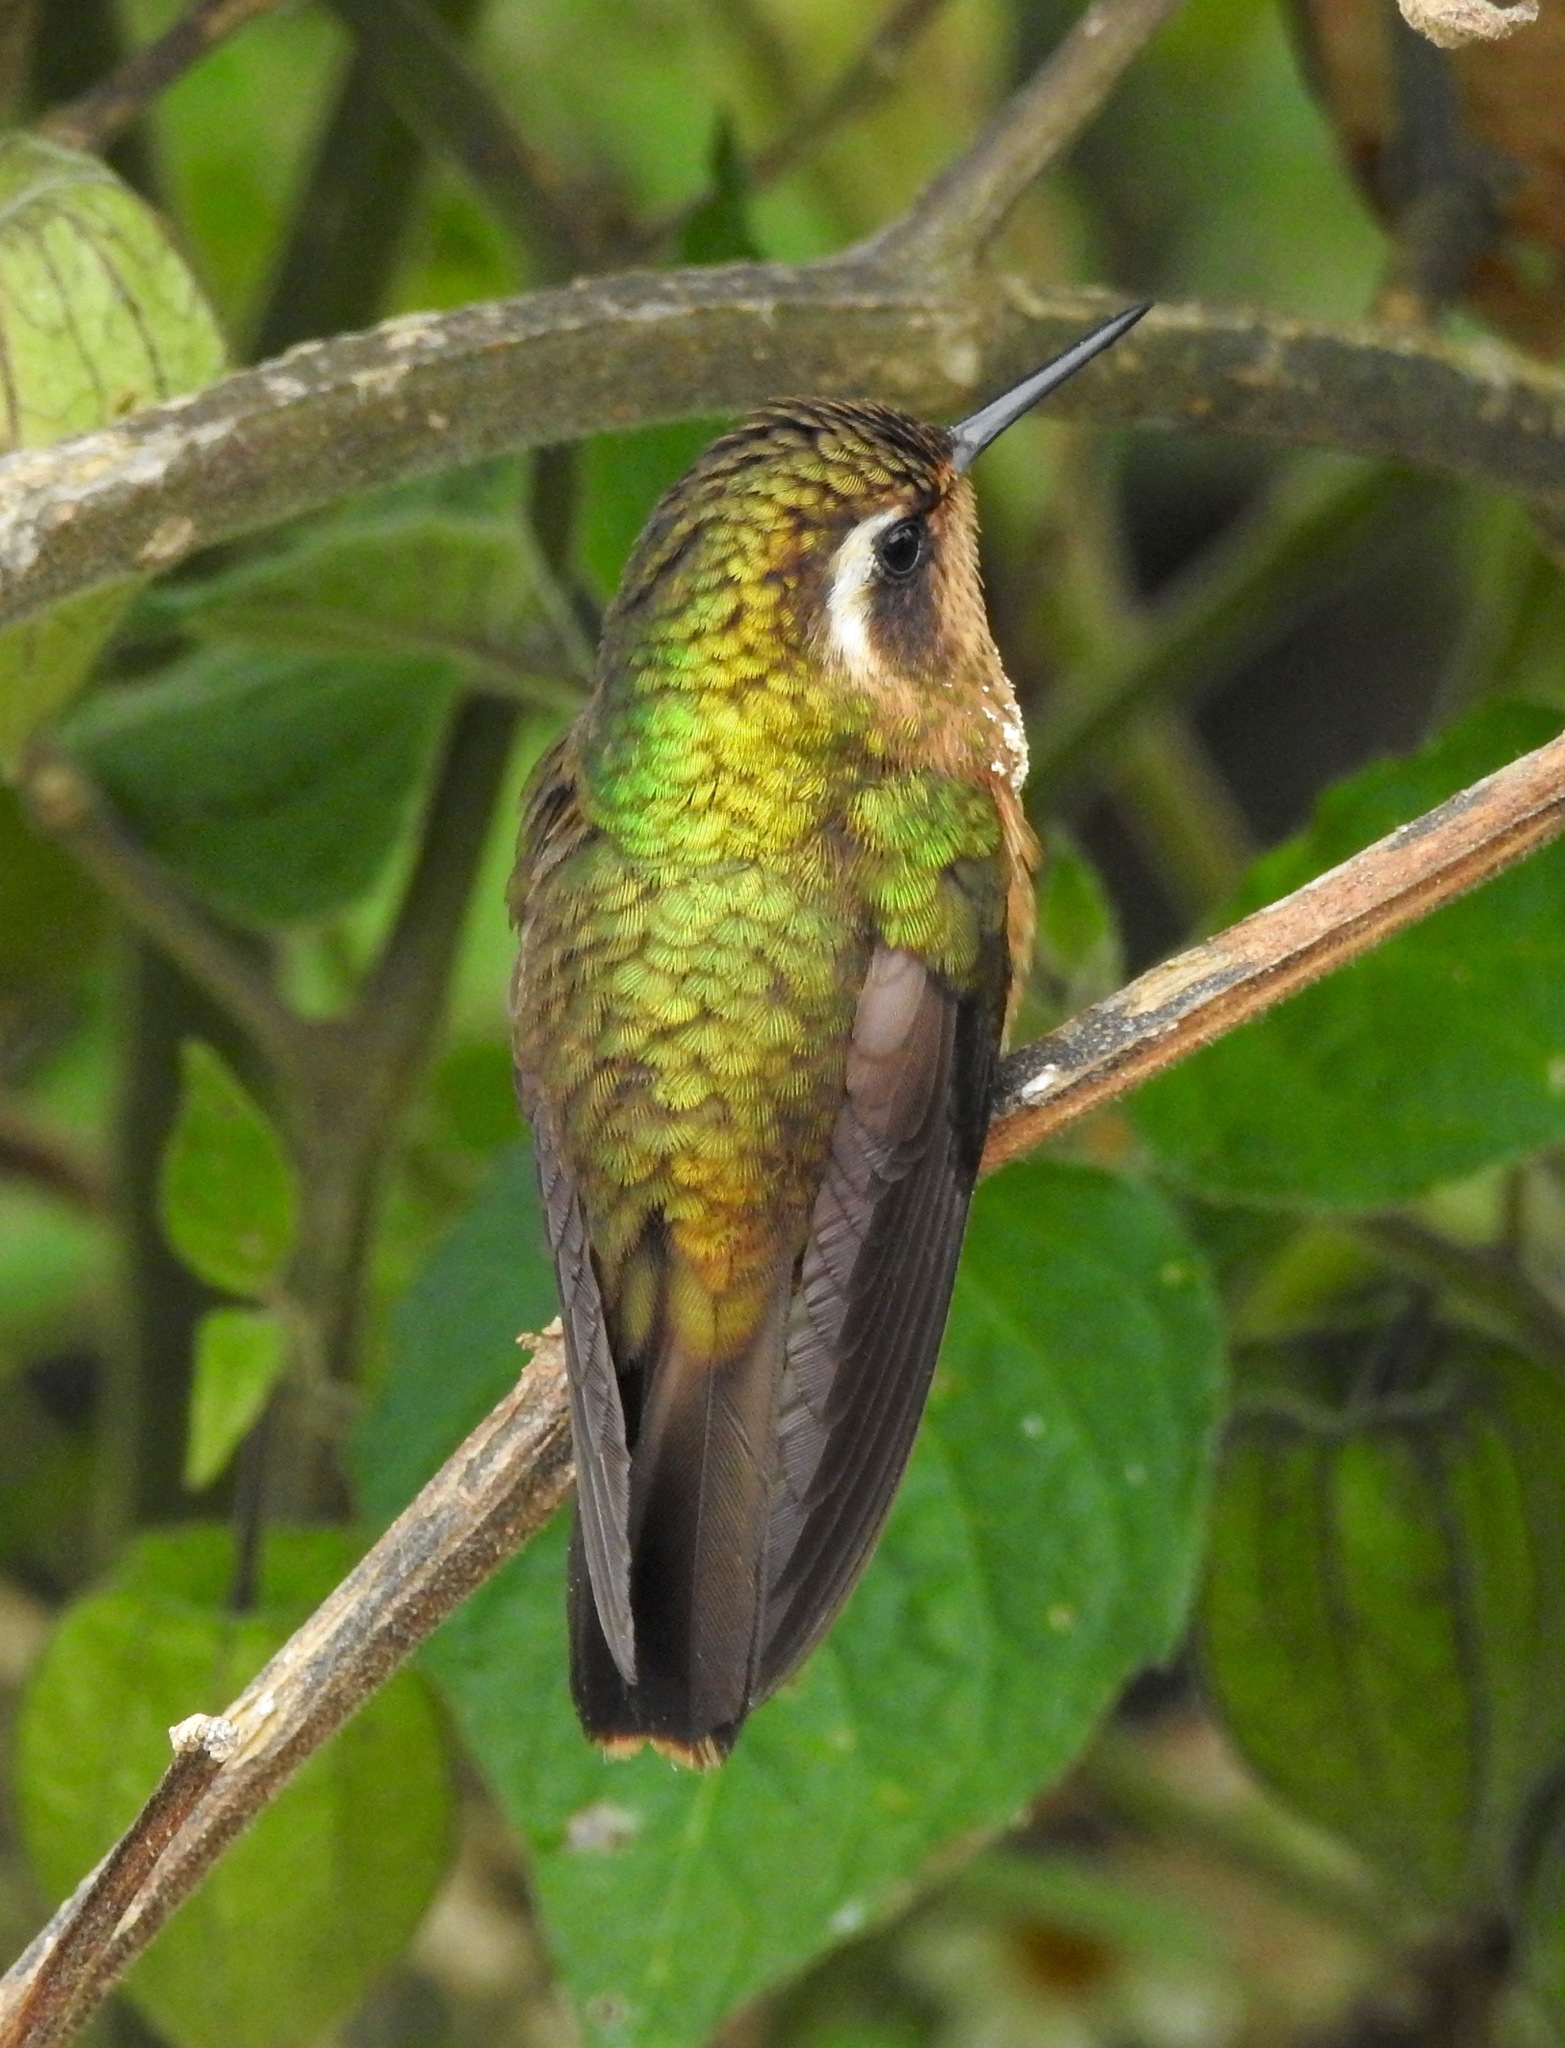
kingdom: Animalia
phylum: Chordata
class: Aves
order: Apodiformes
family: Trochilidae
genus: Adelomyia
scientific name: Adelomyia melanogenys
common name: Speckled hummingbird
